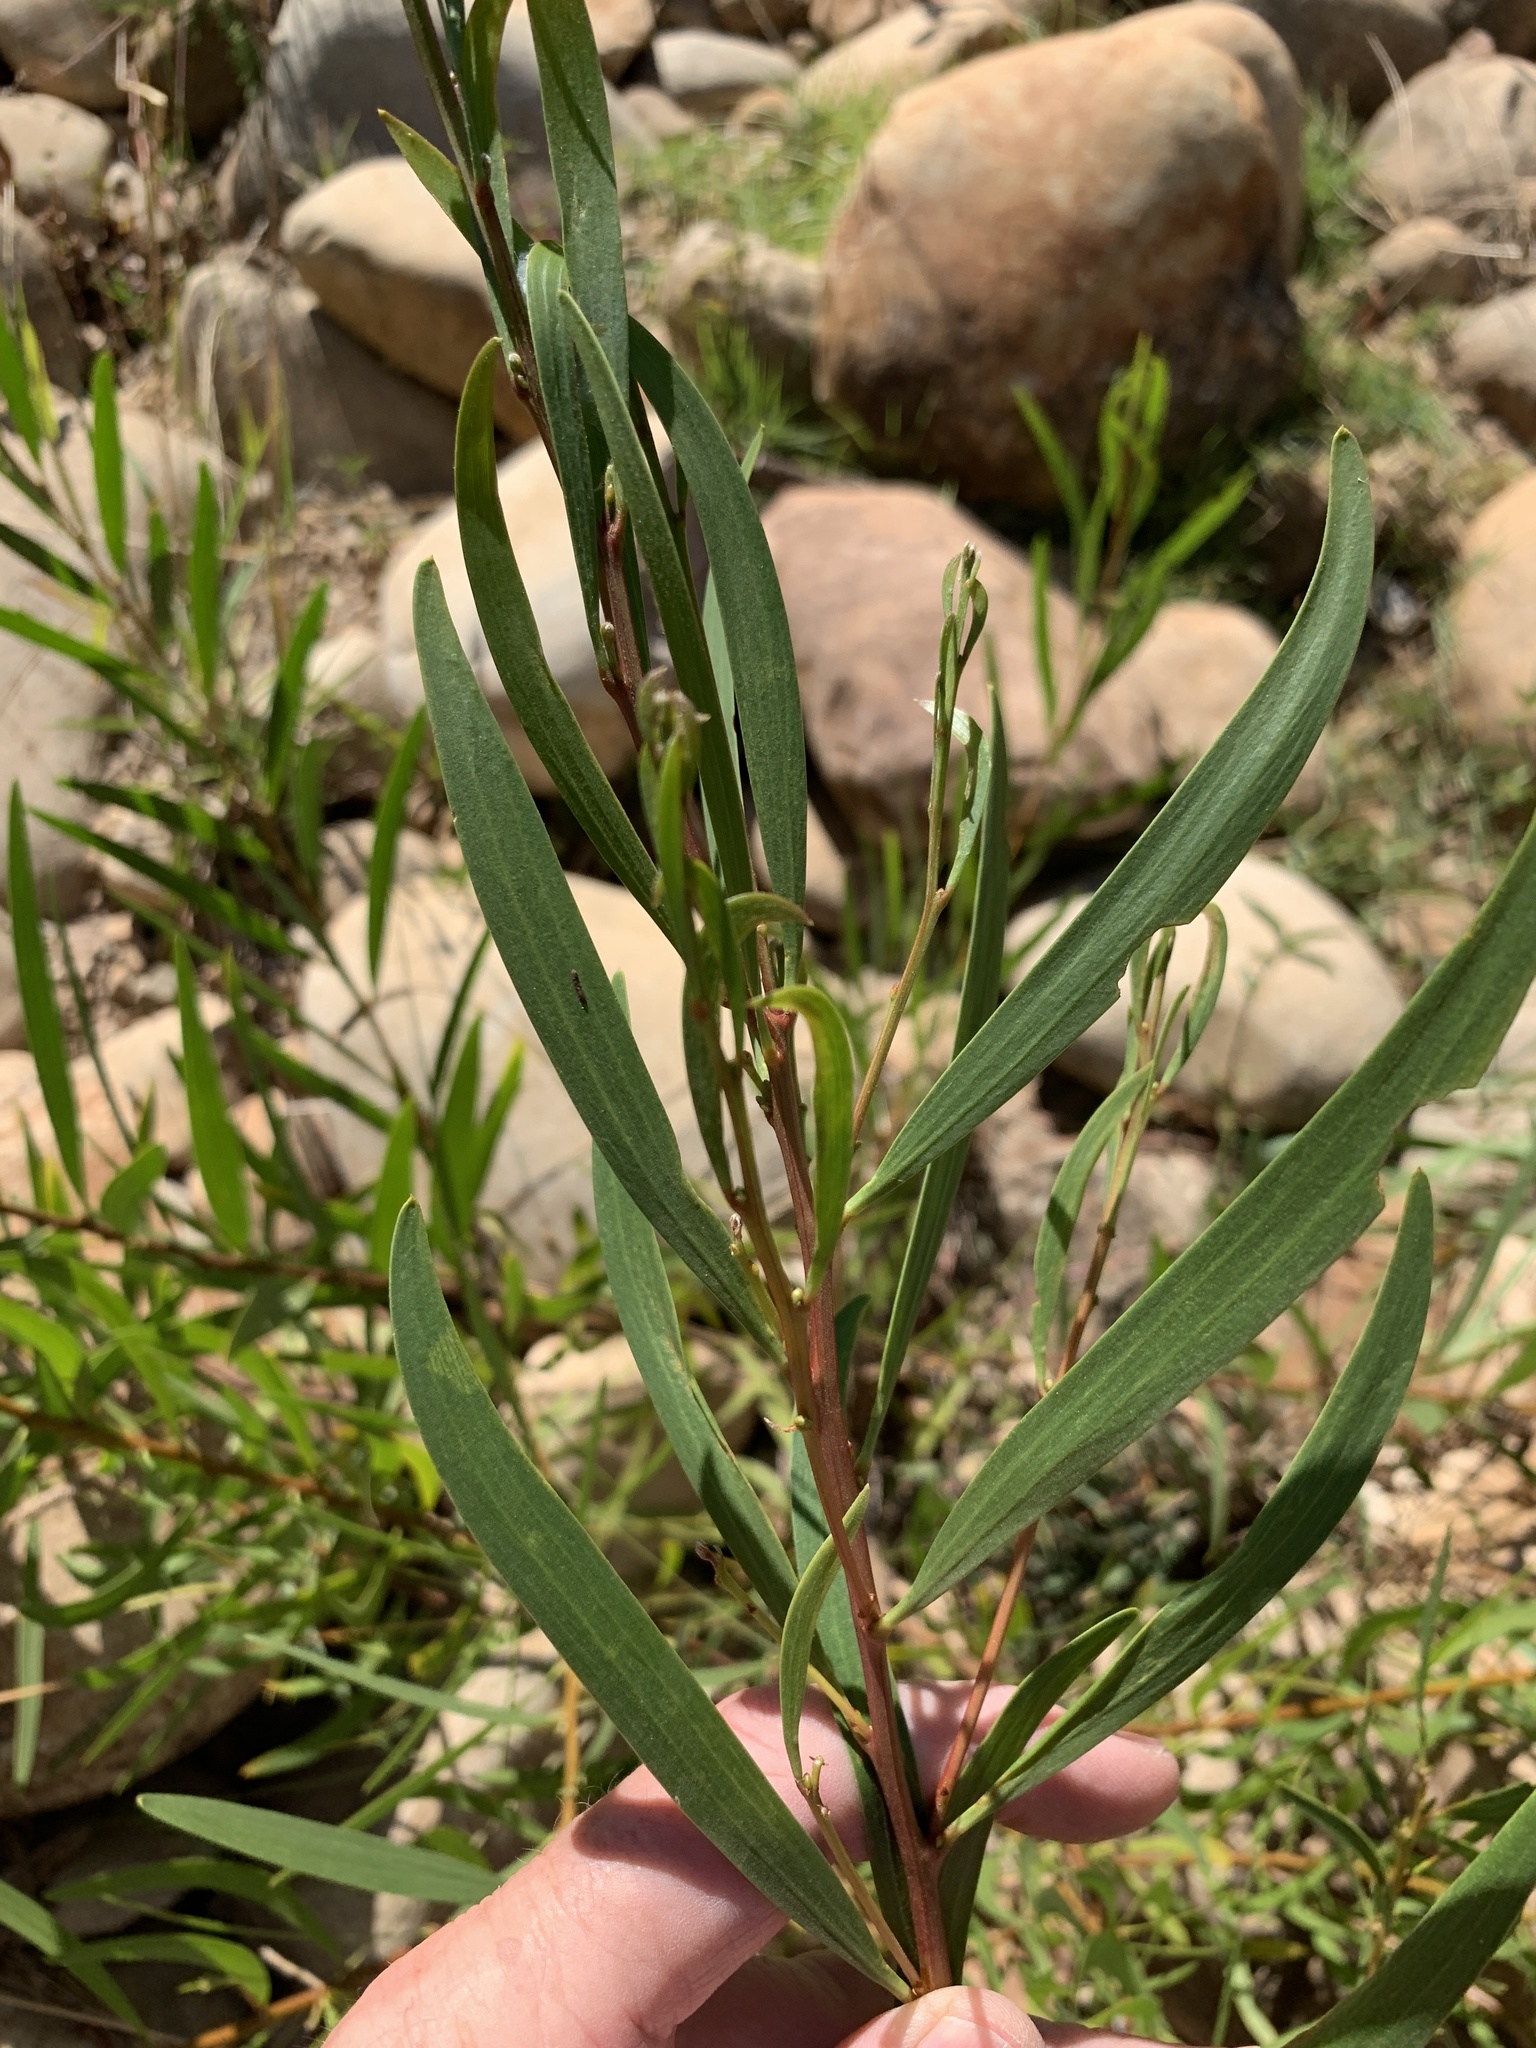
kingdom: Plantae
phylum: Tracheophyta
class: Magnoliopsida
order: Fabales
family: Fabaceae
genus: Acacia
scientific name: Acacia longifolia
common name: Sydney golden wattle
